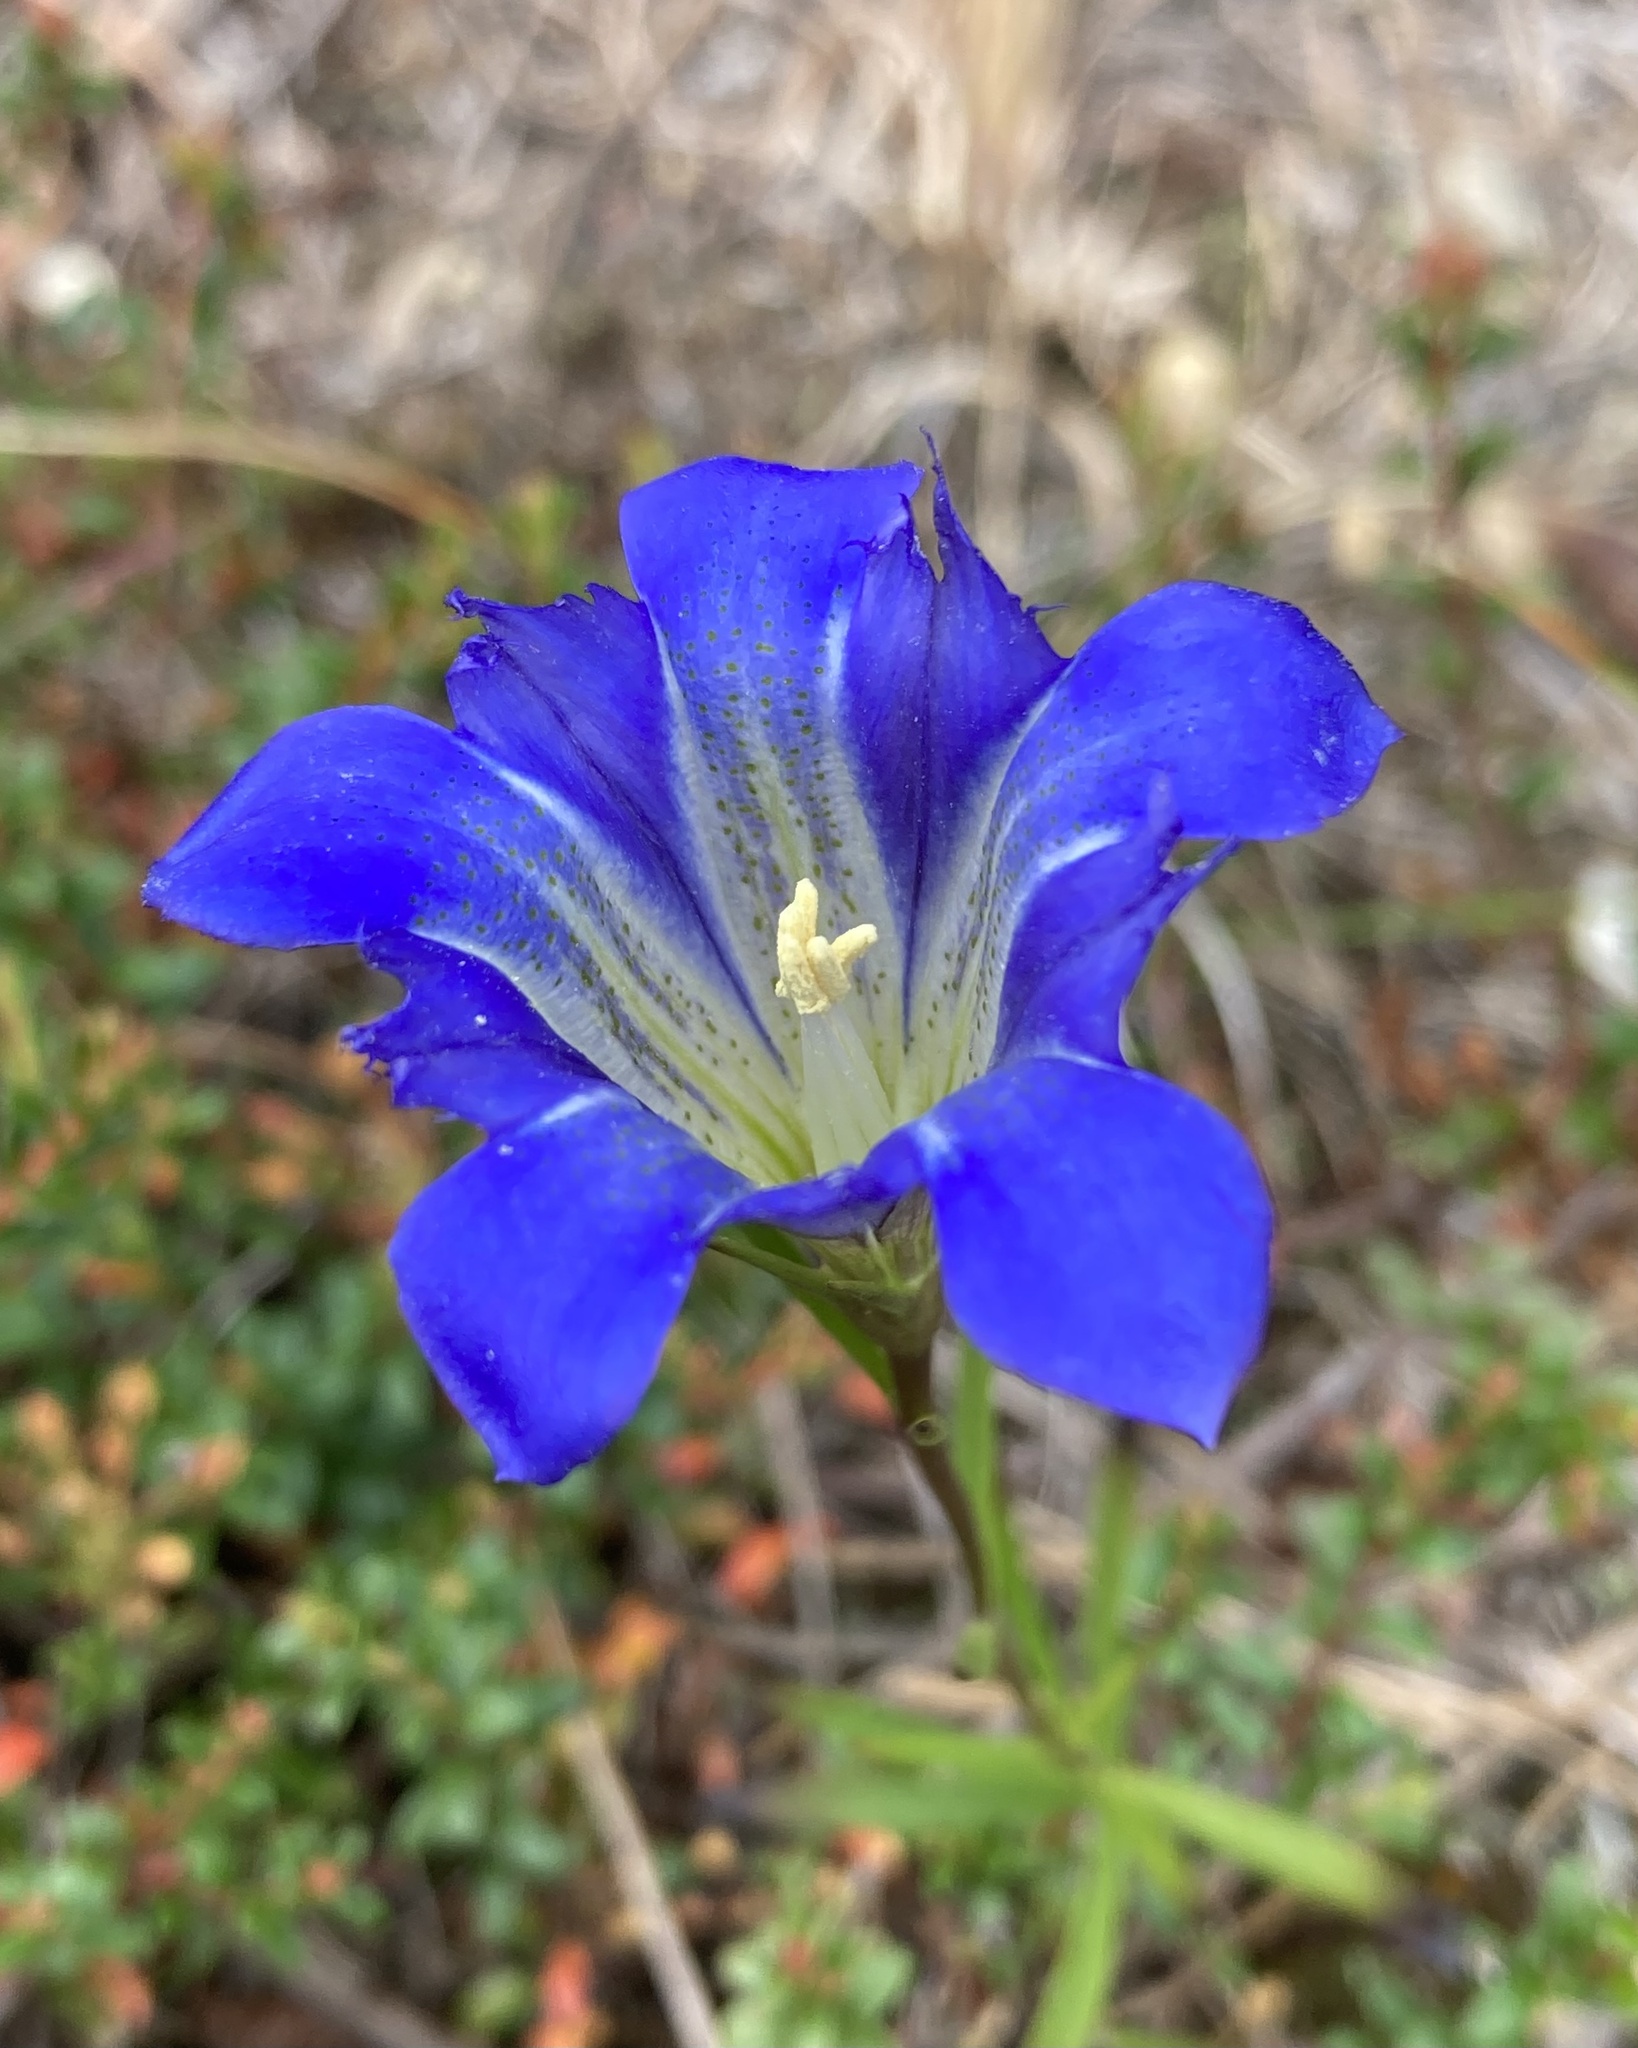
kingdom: Plantae
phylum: Tracheophyta
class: Magnoliopsida
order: Gentianales
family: Gentianaceae
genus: Gentiana
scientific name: Gentiana autumnalis
